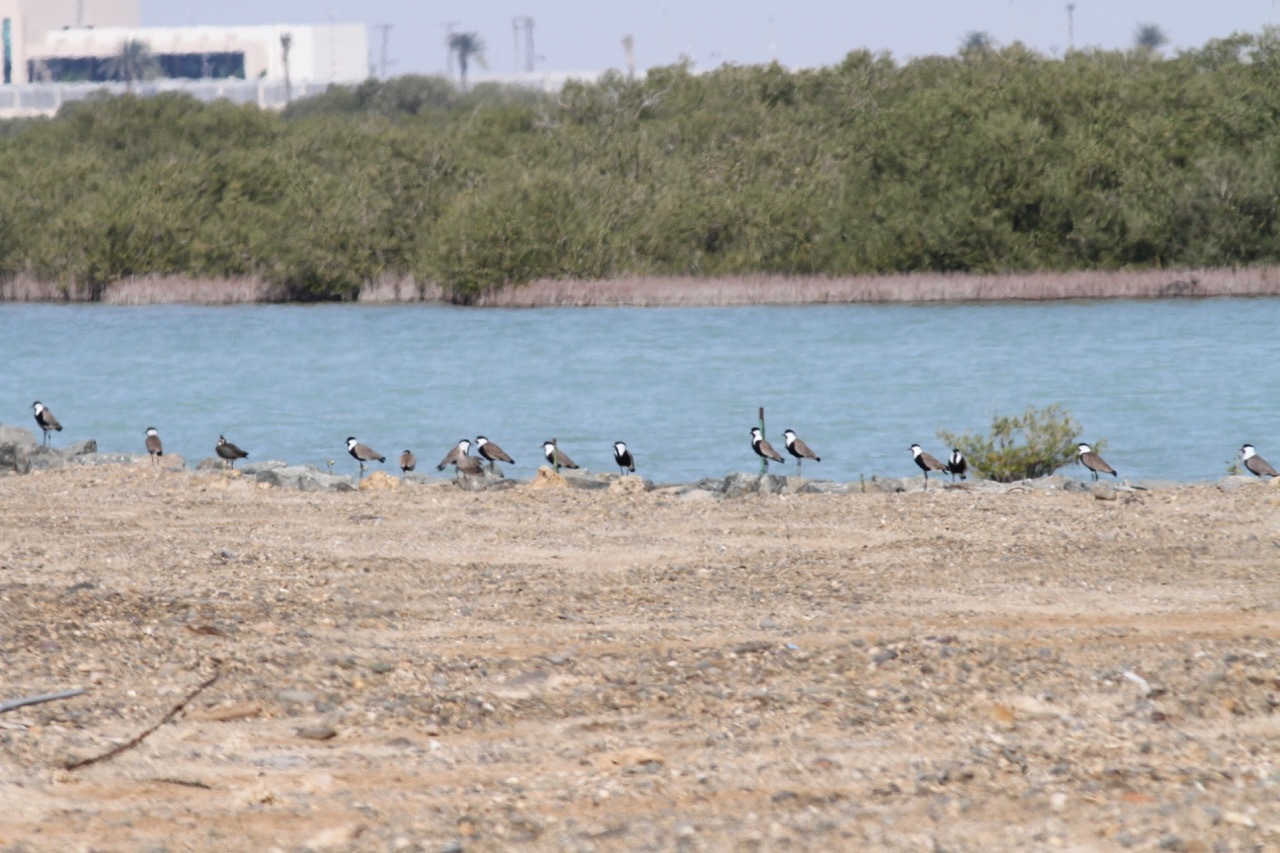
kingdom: Animalia
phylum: Chordata
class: Aves
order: Charadriiformes
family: Charadriidae
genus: Vanellus
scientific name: Vanellus vanellus
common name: Northern lapwing
